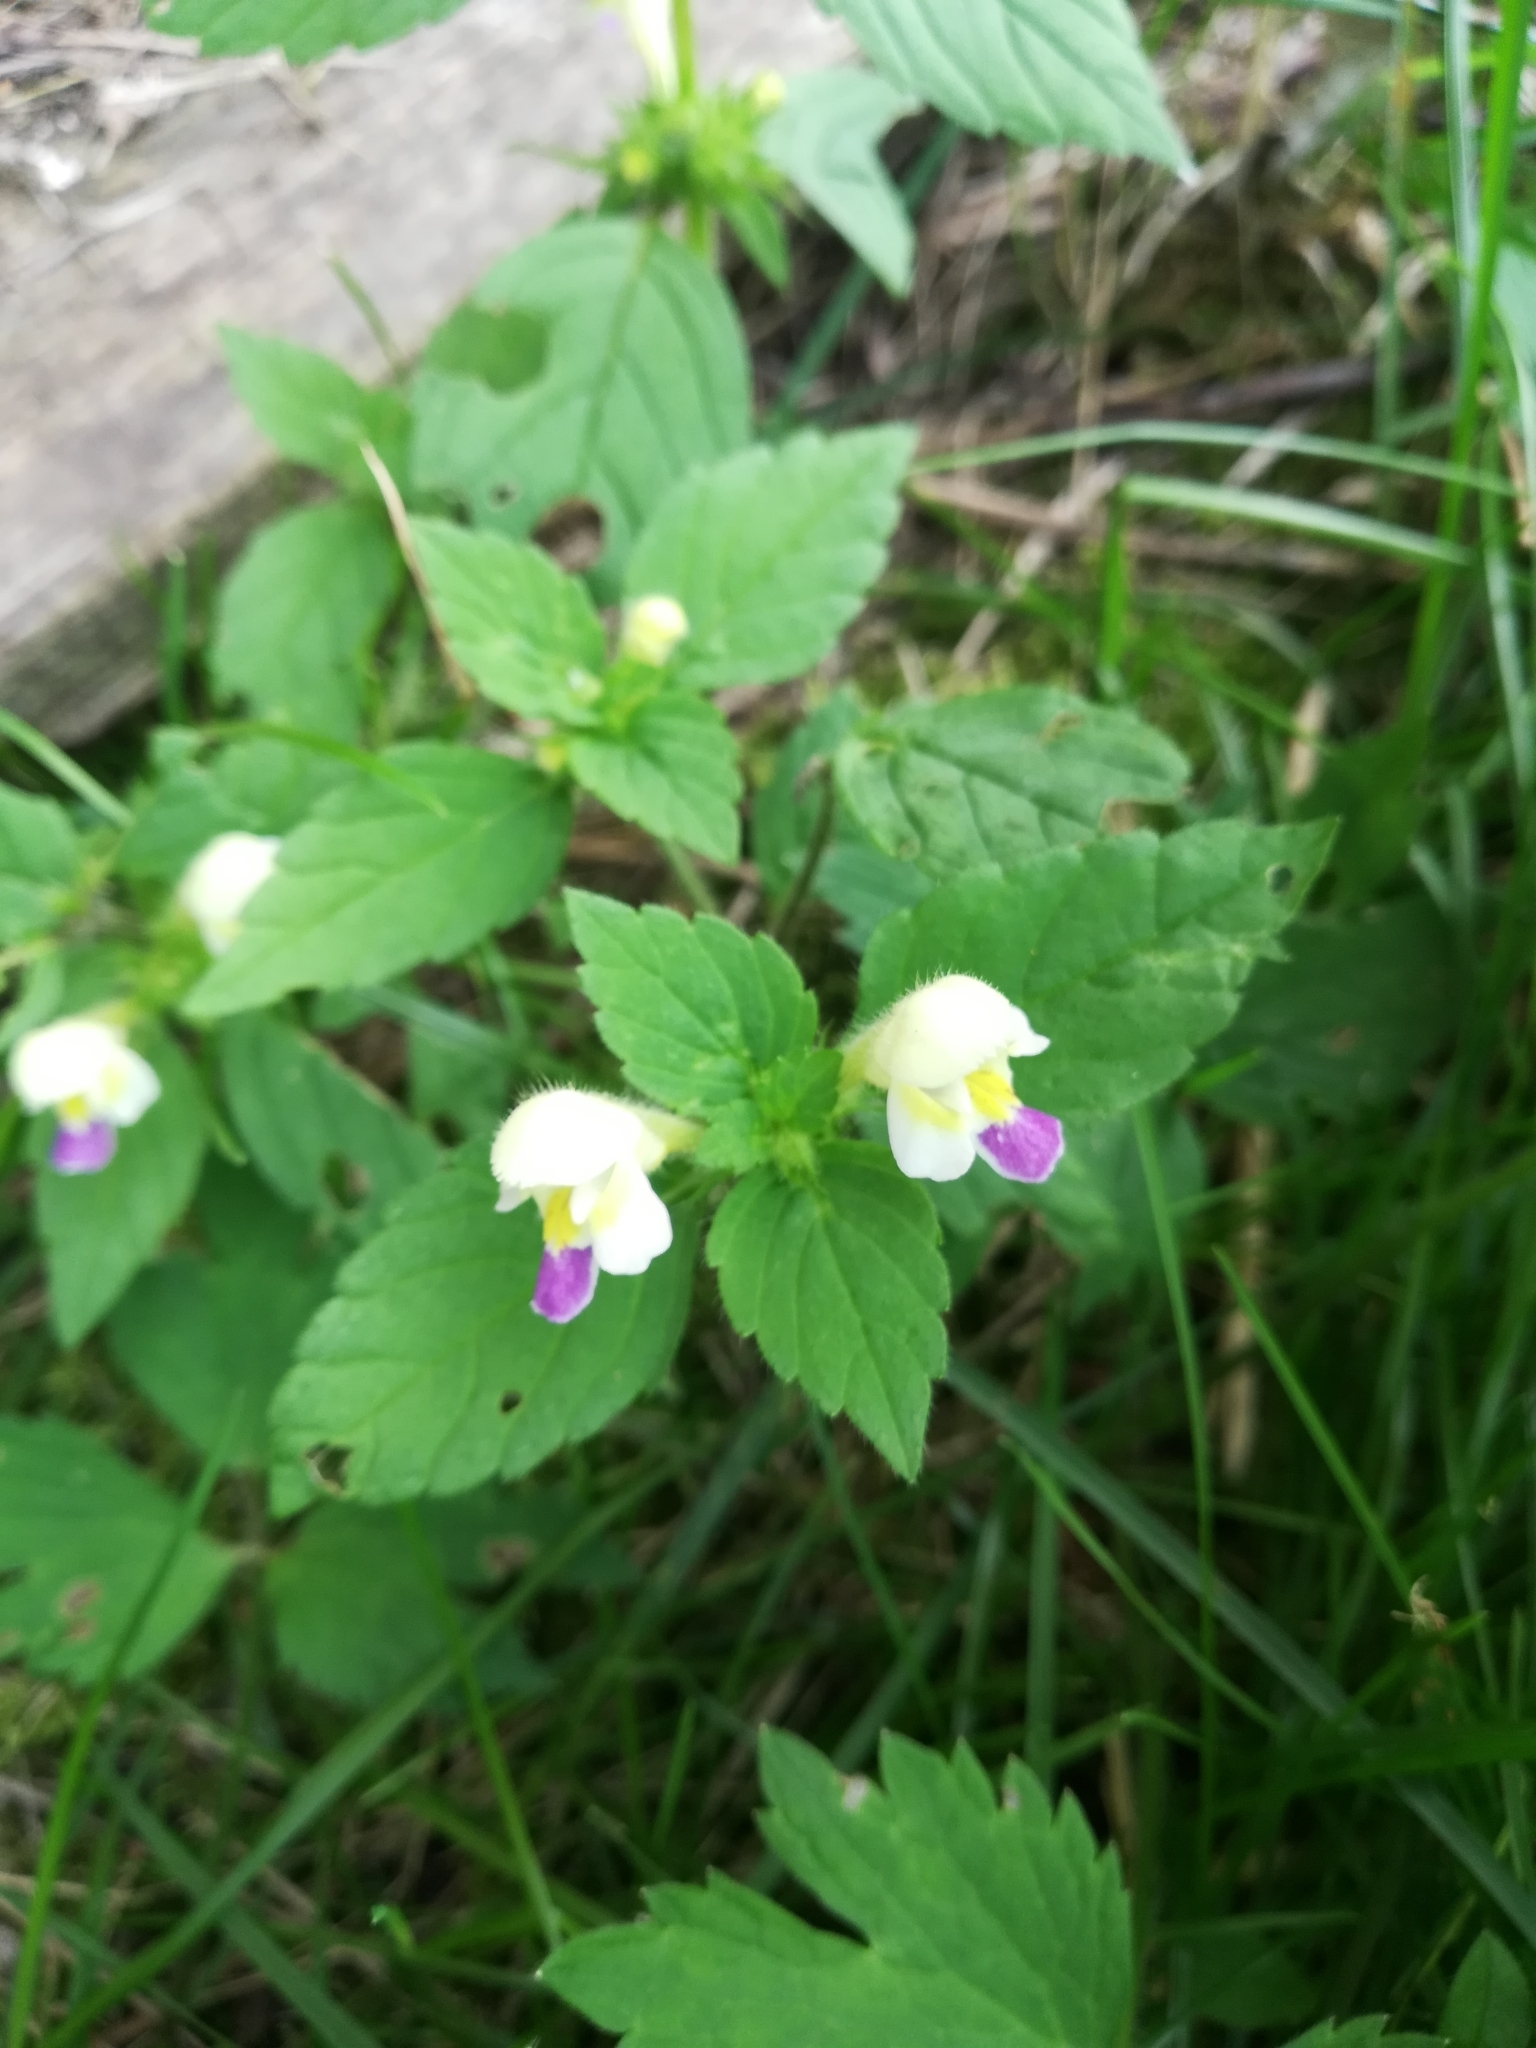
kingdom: Plantae
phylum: Tracheophyta
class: Magnoliopsida
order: Lamiales
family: Lamiaceae
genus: Galeopsis
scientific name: Galeopsis speciosa
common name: Large-flowered hemp-nettle
